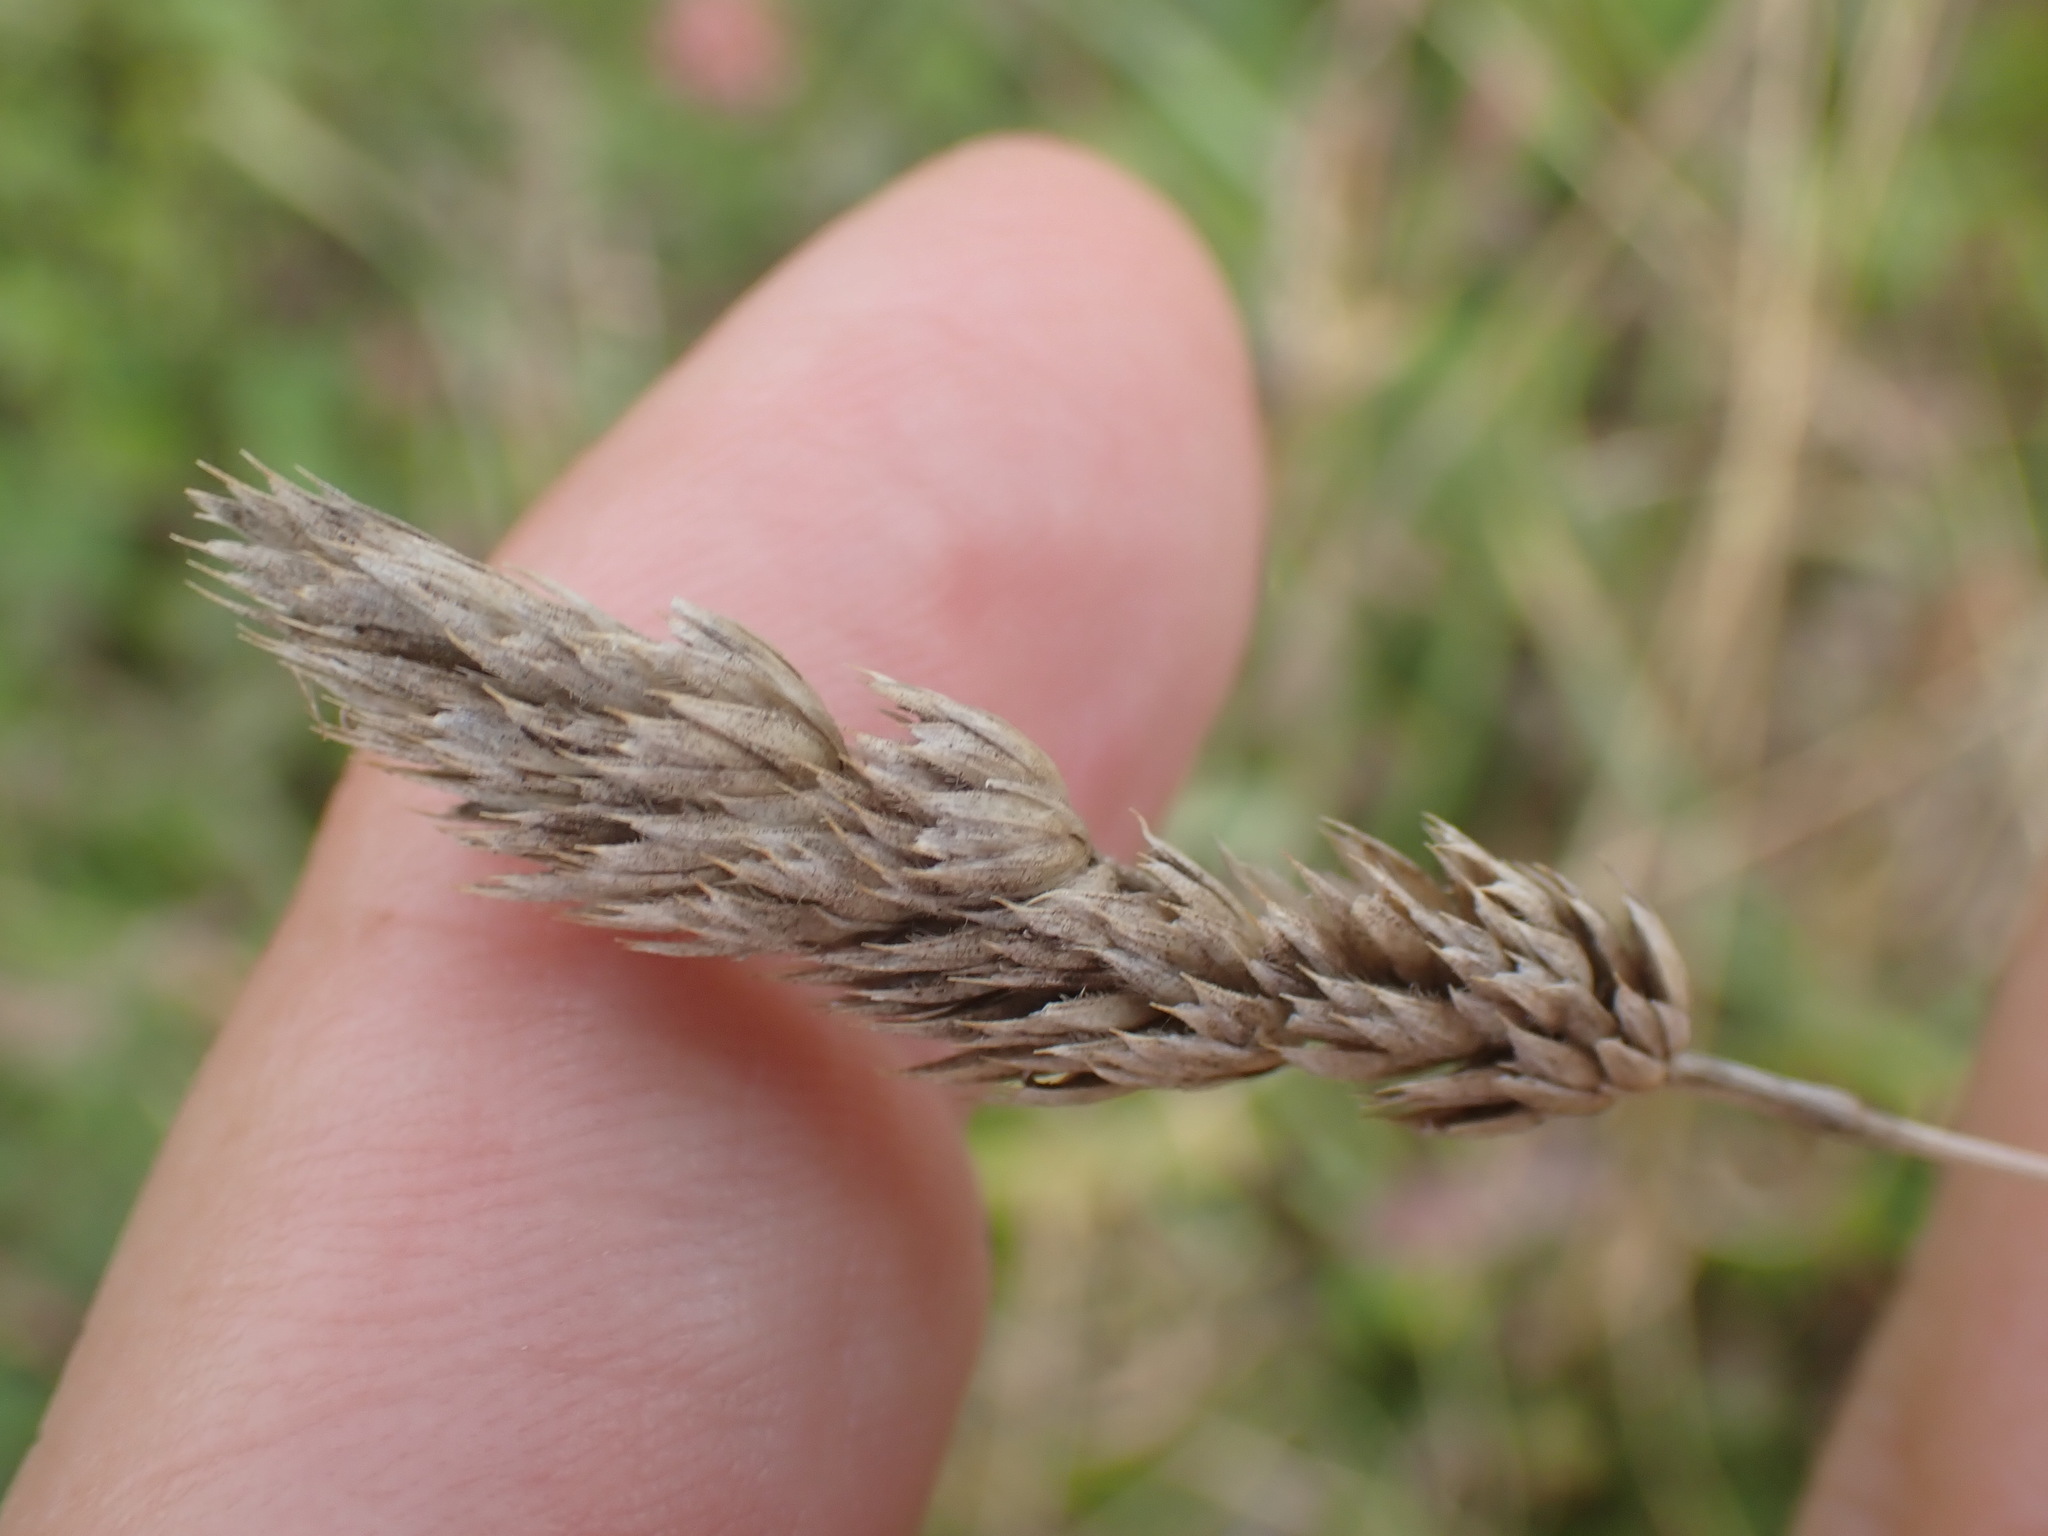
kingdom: Plantae
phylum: Tracheophyta
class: Liliopsida
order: Poales
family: Poaceae
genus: Dactylis
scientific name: Dactylis glomerata
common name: Orchardgrass
